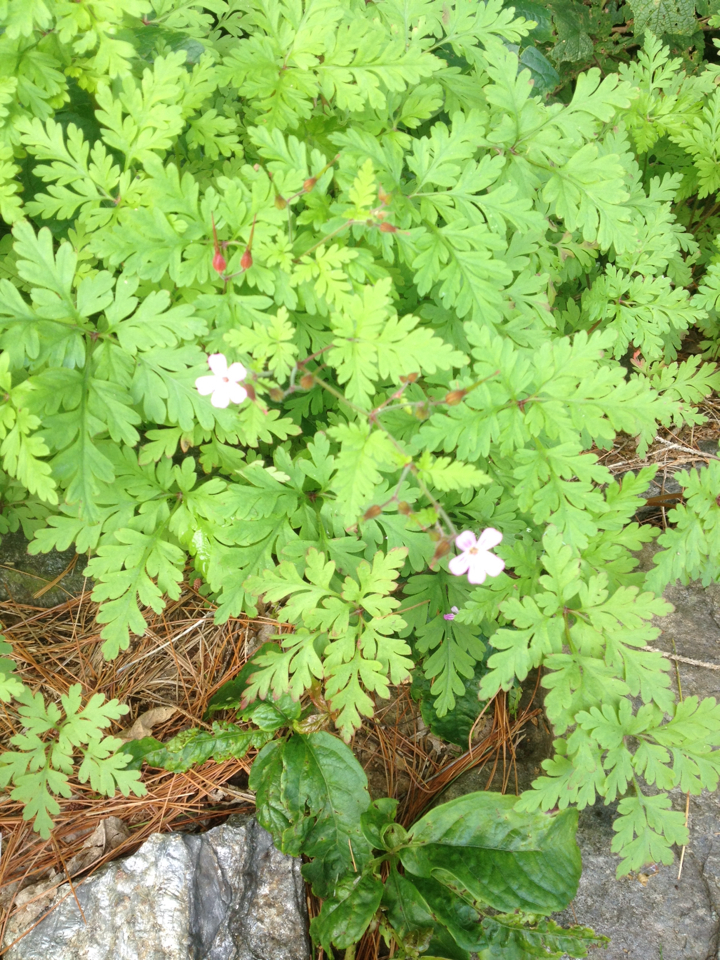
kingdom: Plantae
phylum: Tracheophyta
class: Magnoliopsida
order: Geraniales
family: Geraniaceae
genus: Geranium
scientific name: Geranium robertianum
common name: Herb-robert
